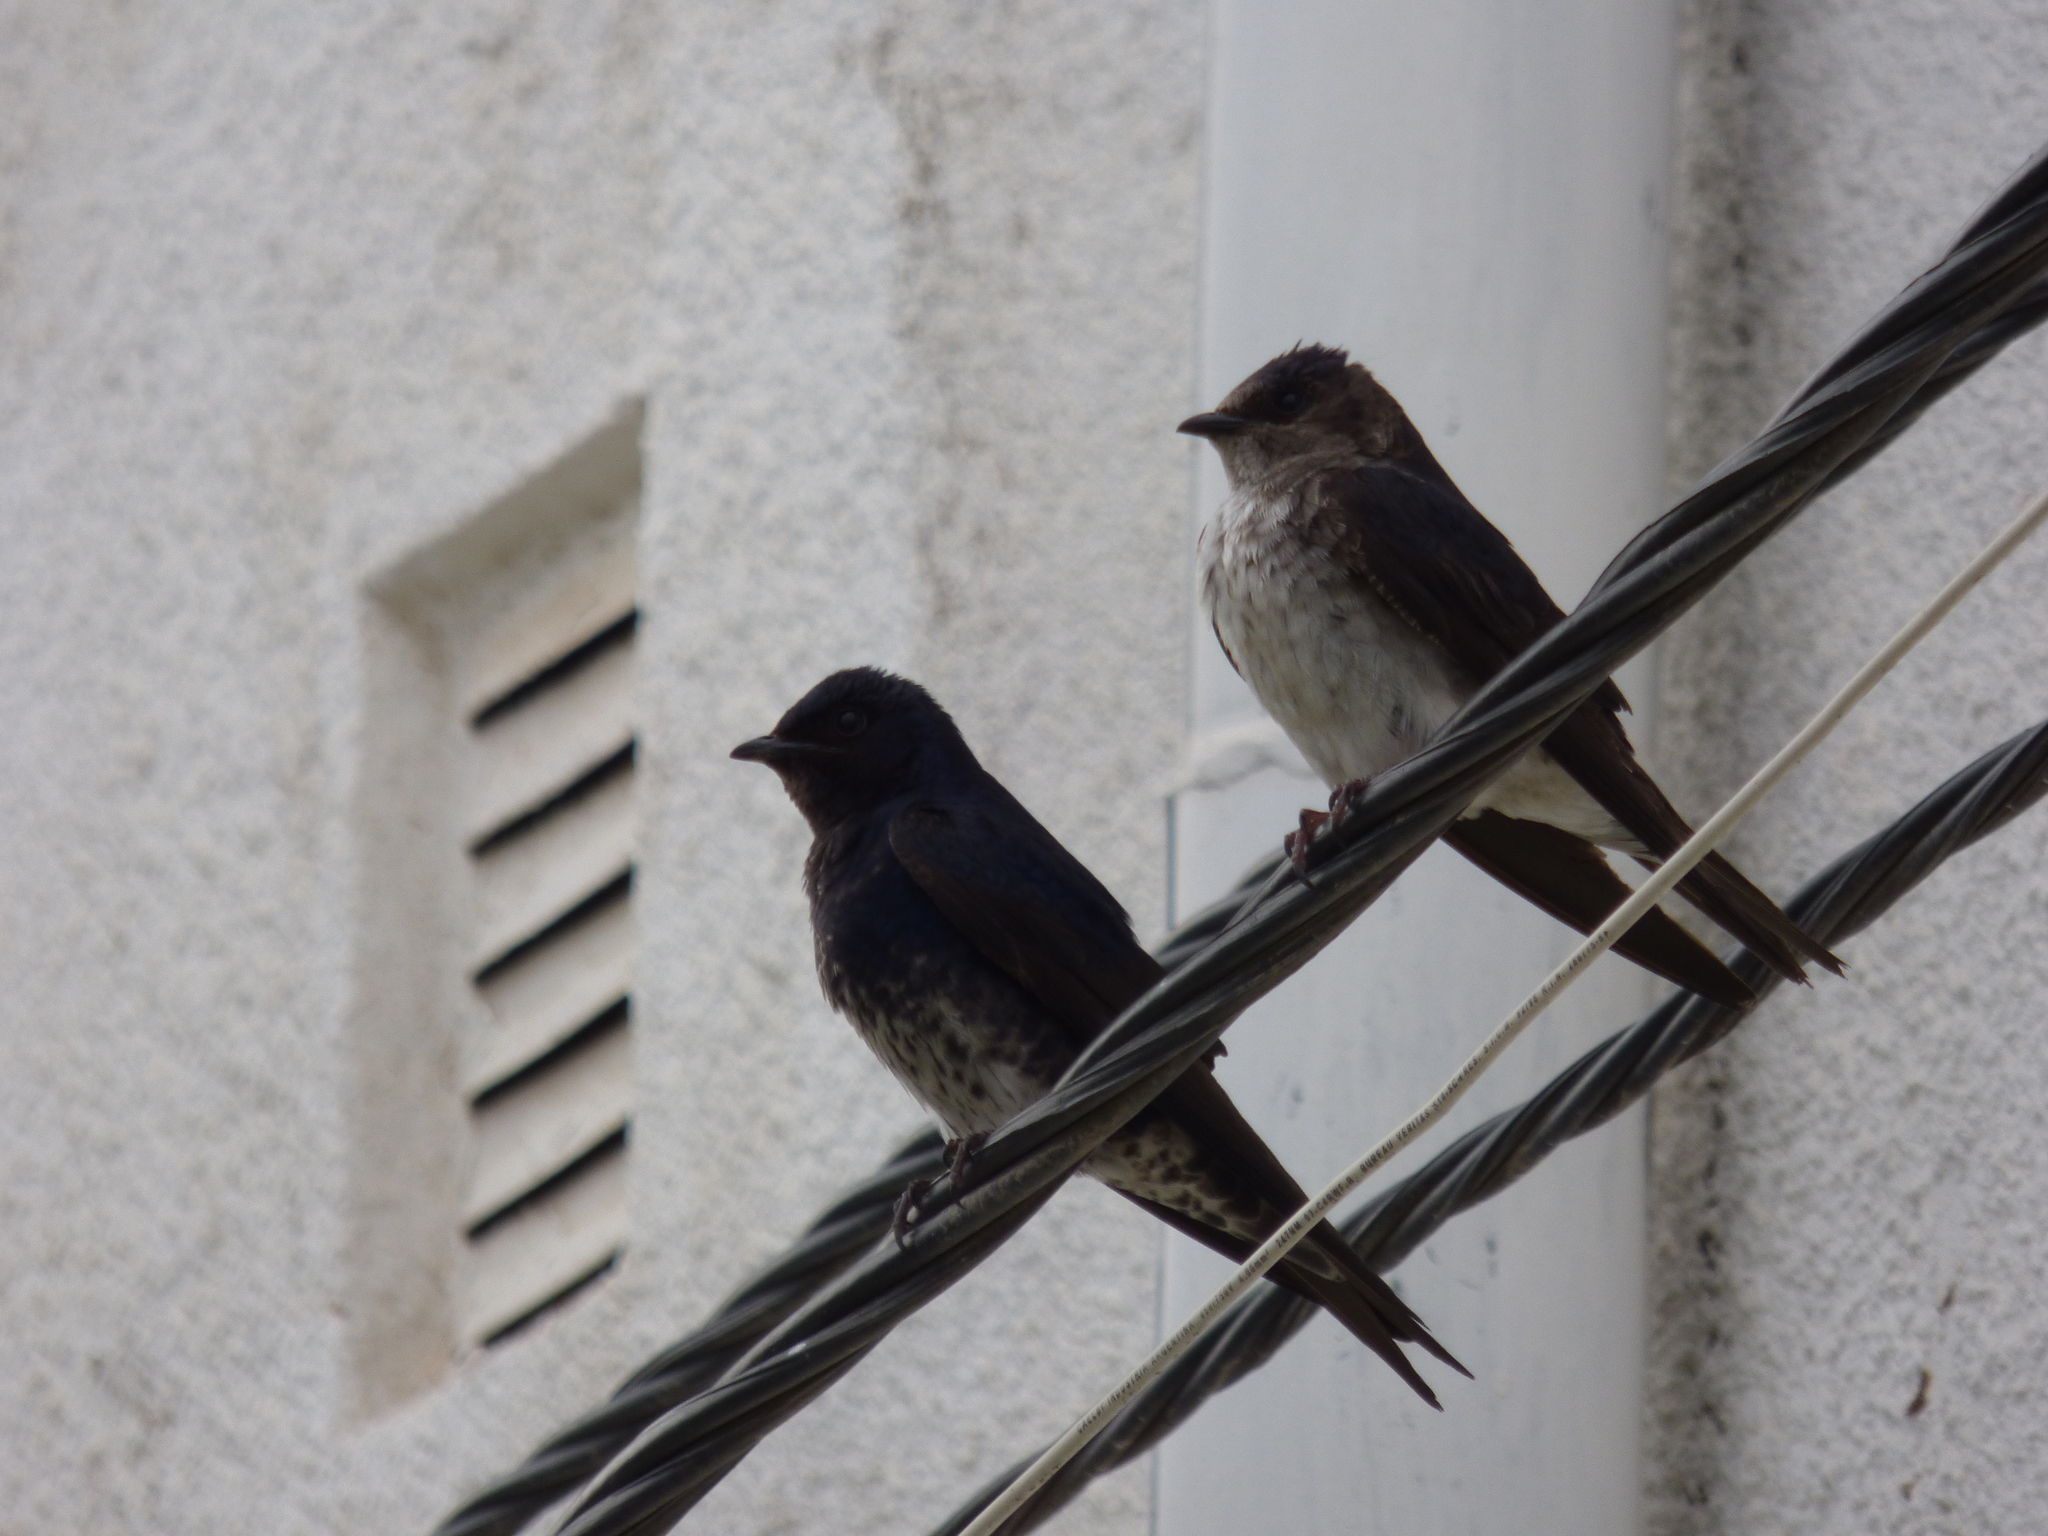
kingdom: Animalia
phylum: Chordata
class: Aves
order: Passeriformes
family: Hirundinidae
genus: Progne
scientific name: Progne elegans
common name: Southern martin
